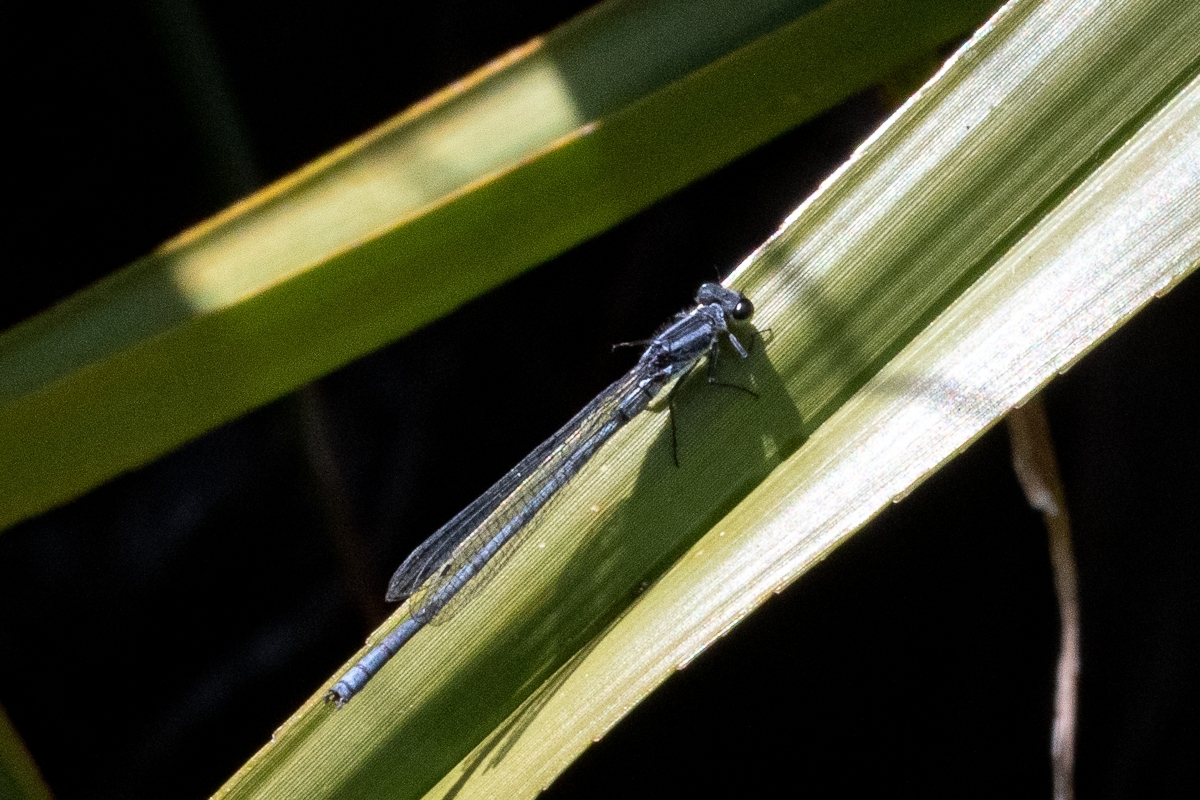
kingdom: Animalia
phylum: Arthropoda
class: Insecta
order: Odonata
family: Coenagrionidae
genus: Pseudagrion
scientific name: Pseudagrion furcigerum
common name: Palmiet sprite
